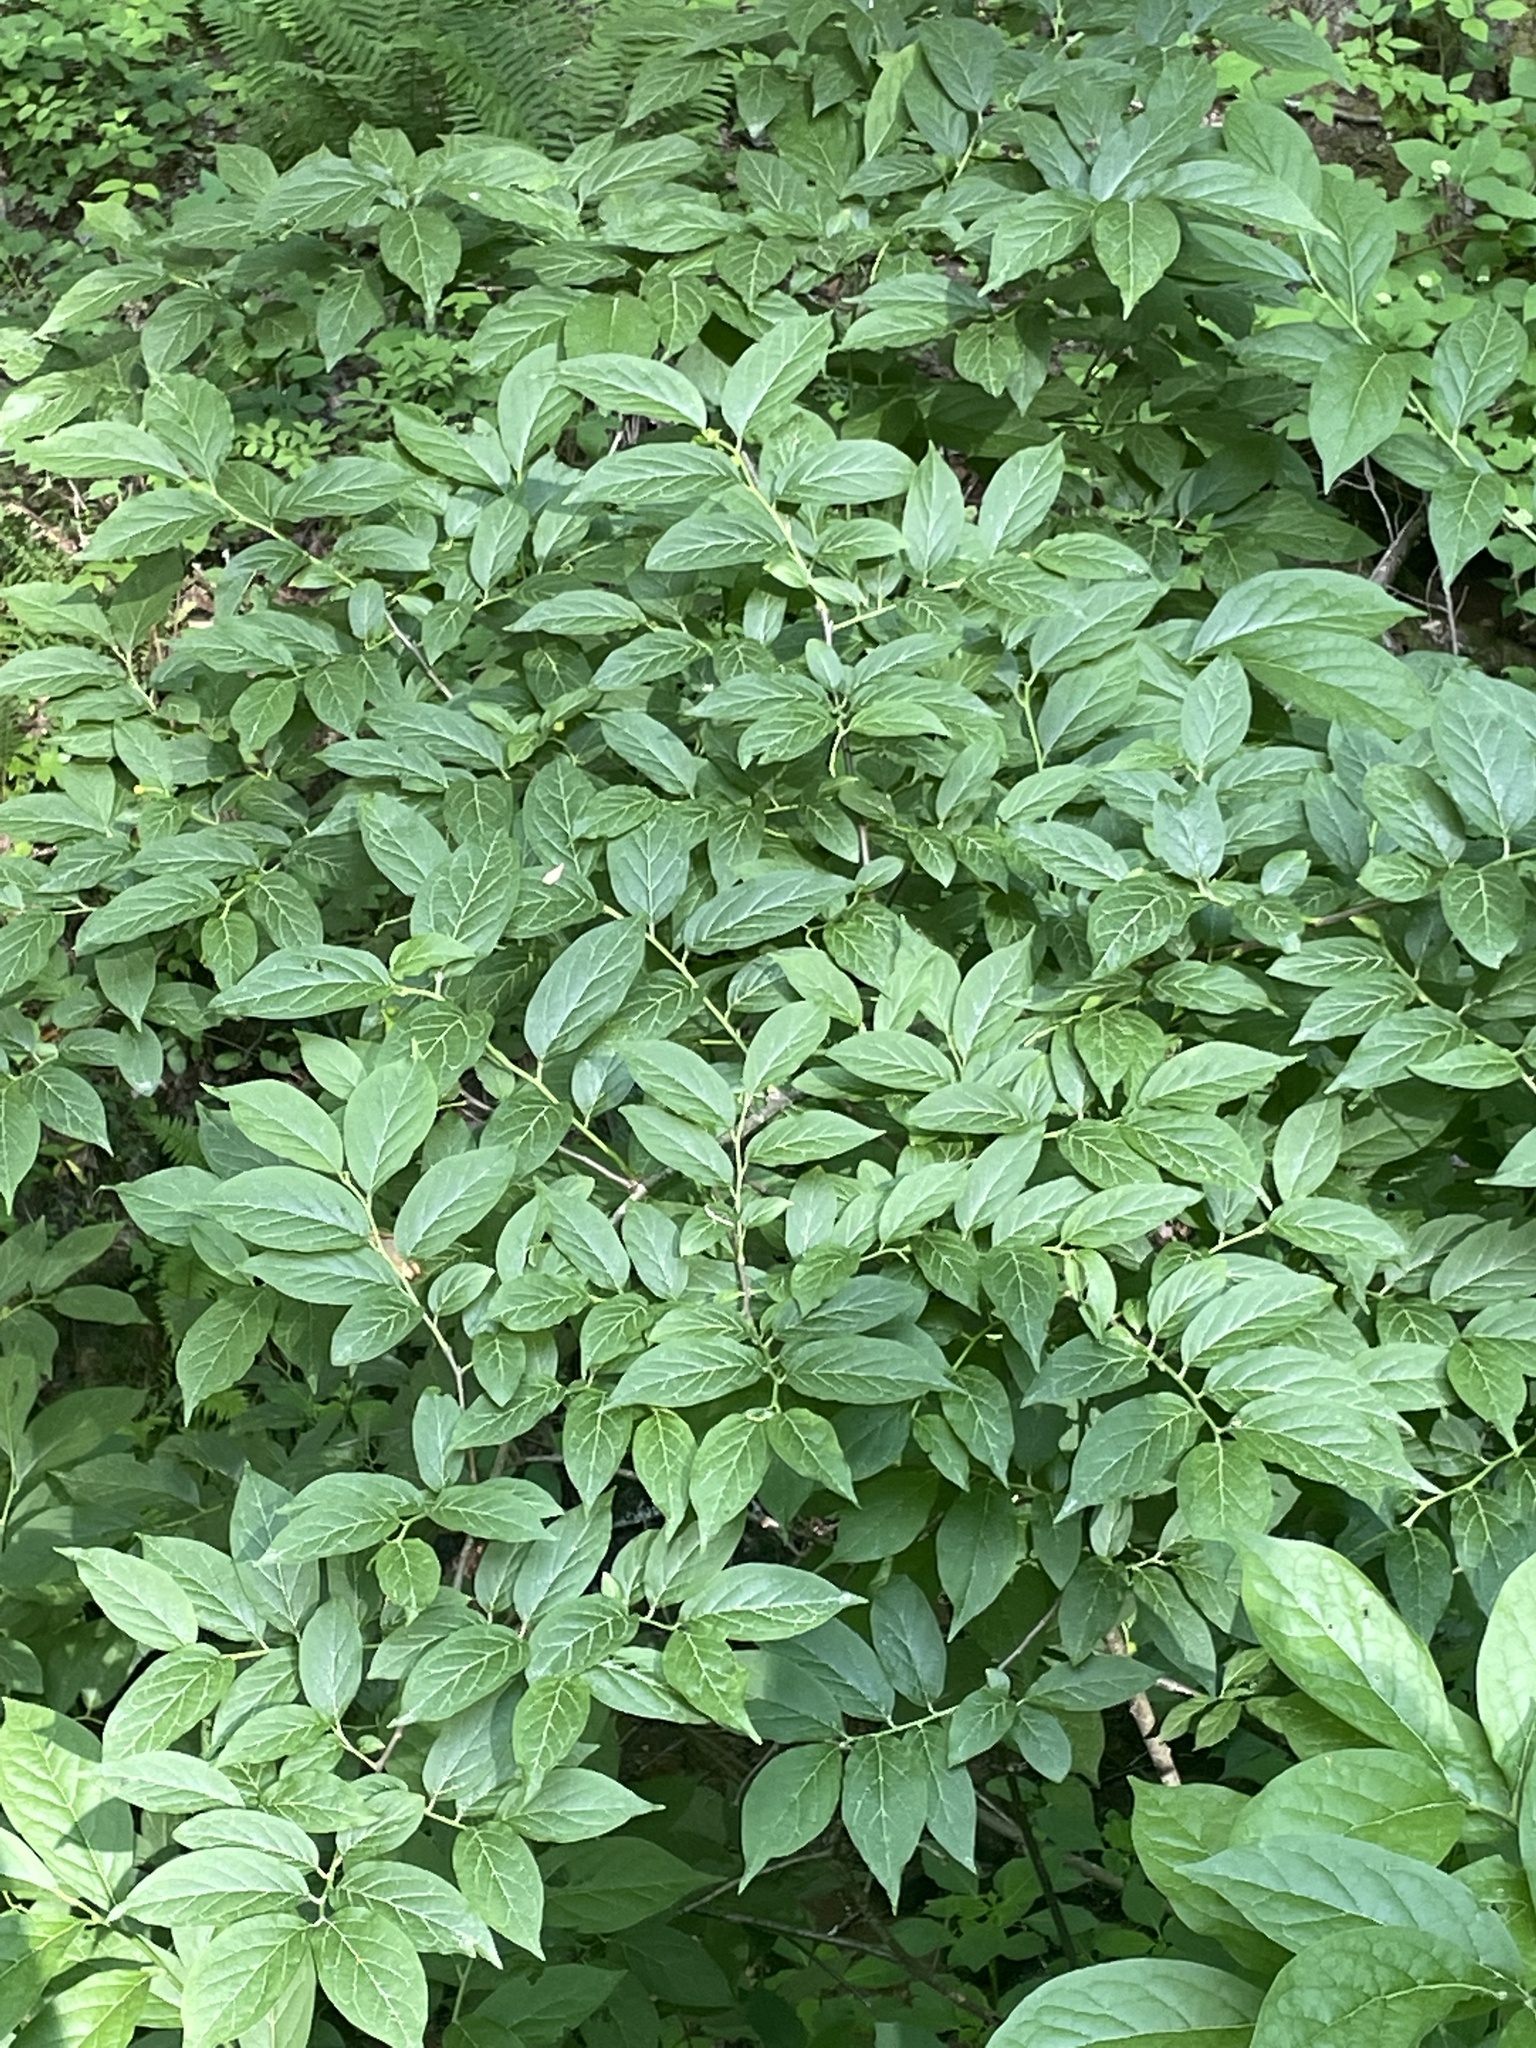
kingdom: Plantae
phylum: Tracheophyta
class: Magnoliopsida
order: Santalales
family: Cervantesiaceae
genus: Pyrularia
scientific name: Pyrularia pubera
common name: Oilnut
